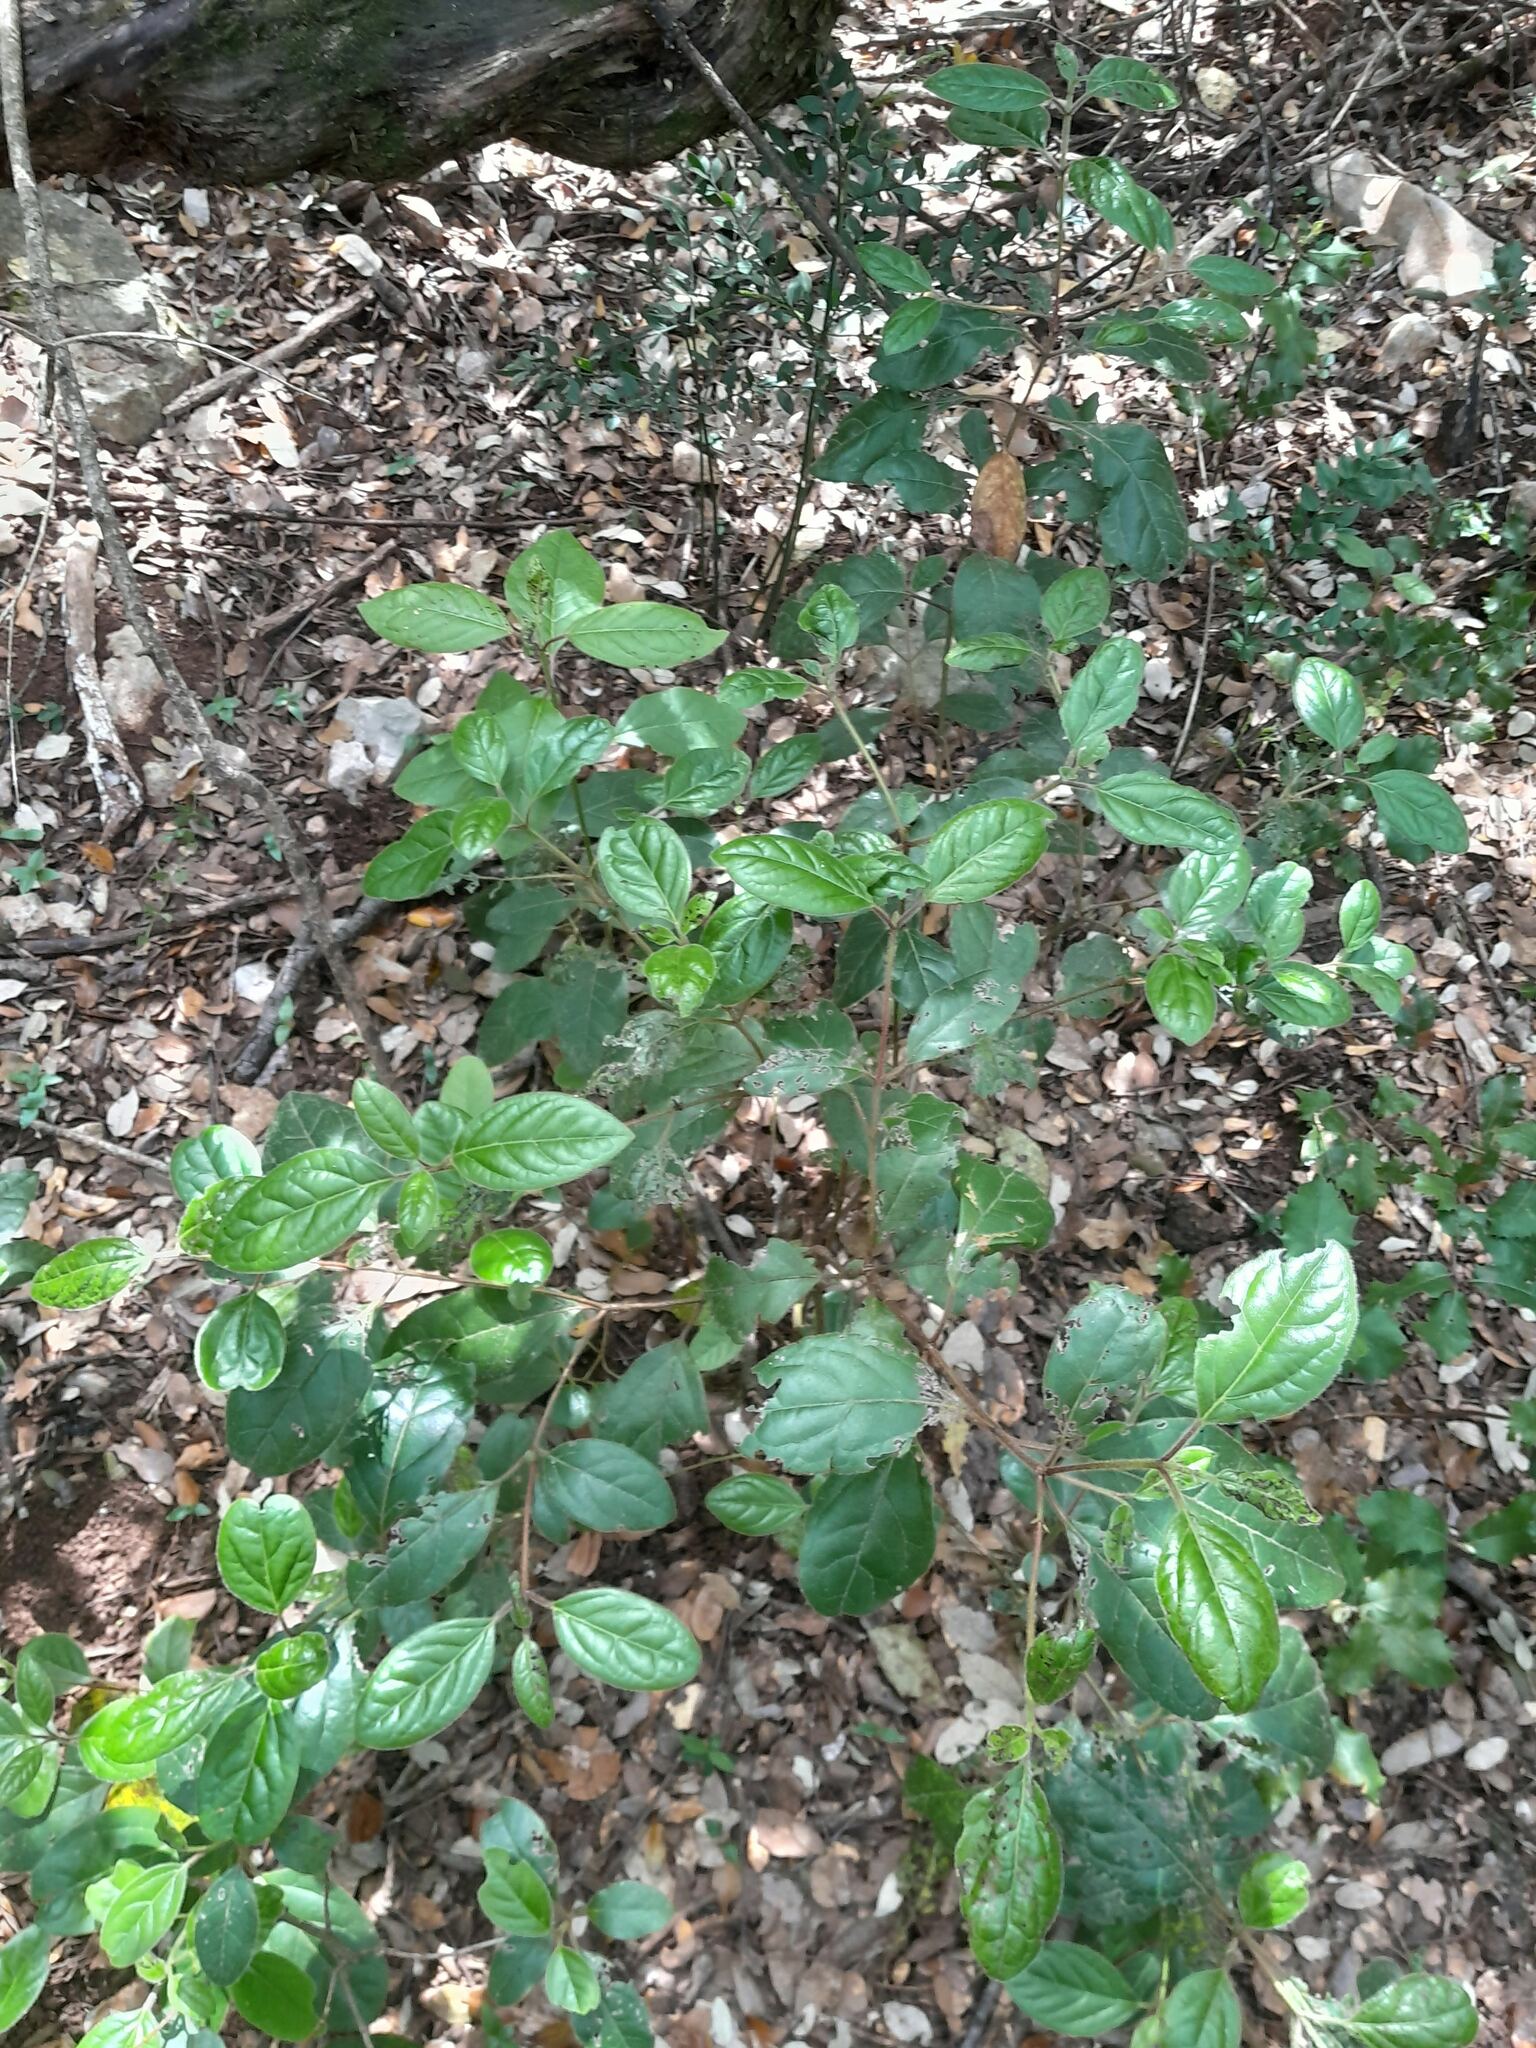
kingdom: Plantae
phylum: Tracheophyta
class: Magnoliopsida
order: Ericales
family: Ericaceae
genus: Arbutus
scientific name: Arbutus unedo
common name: Strawberry-tree
